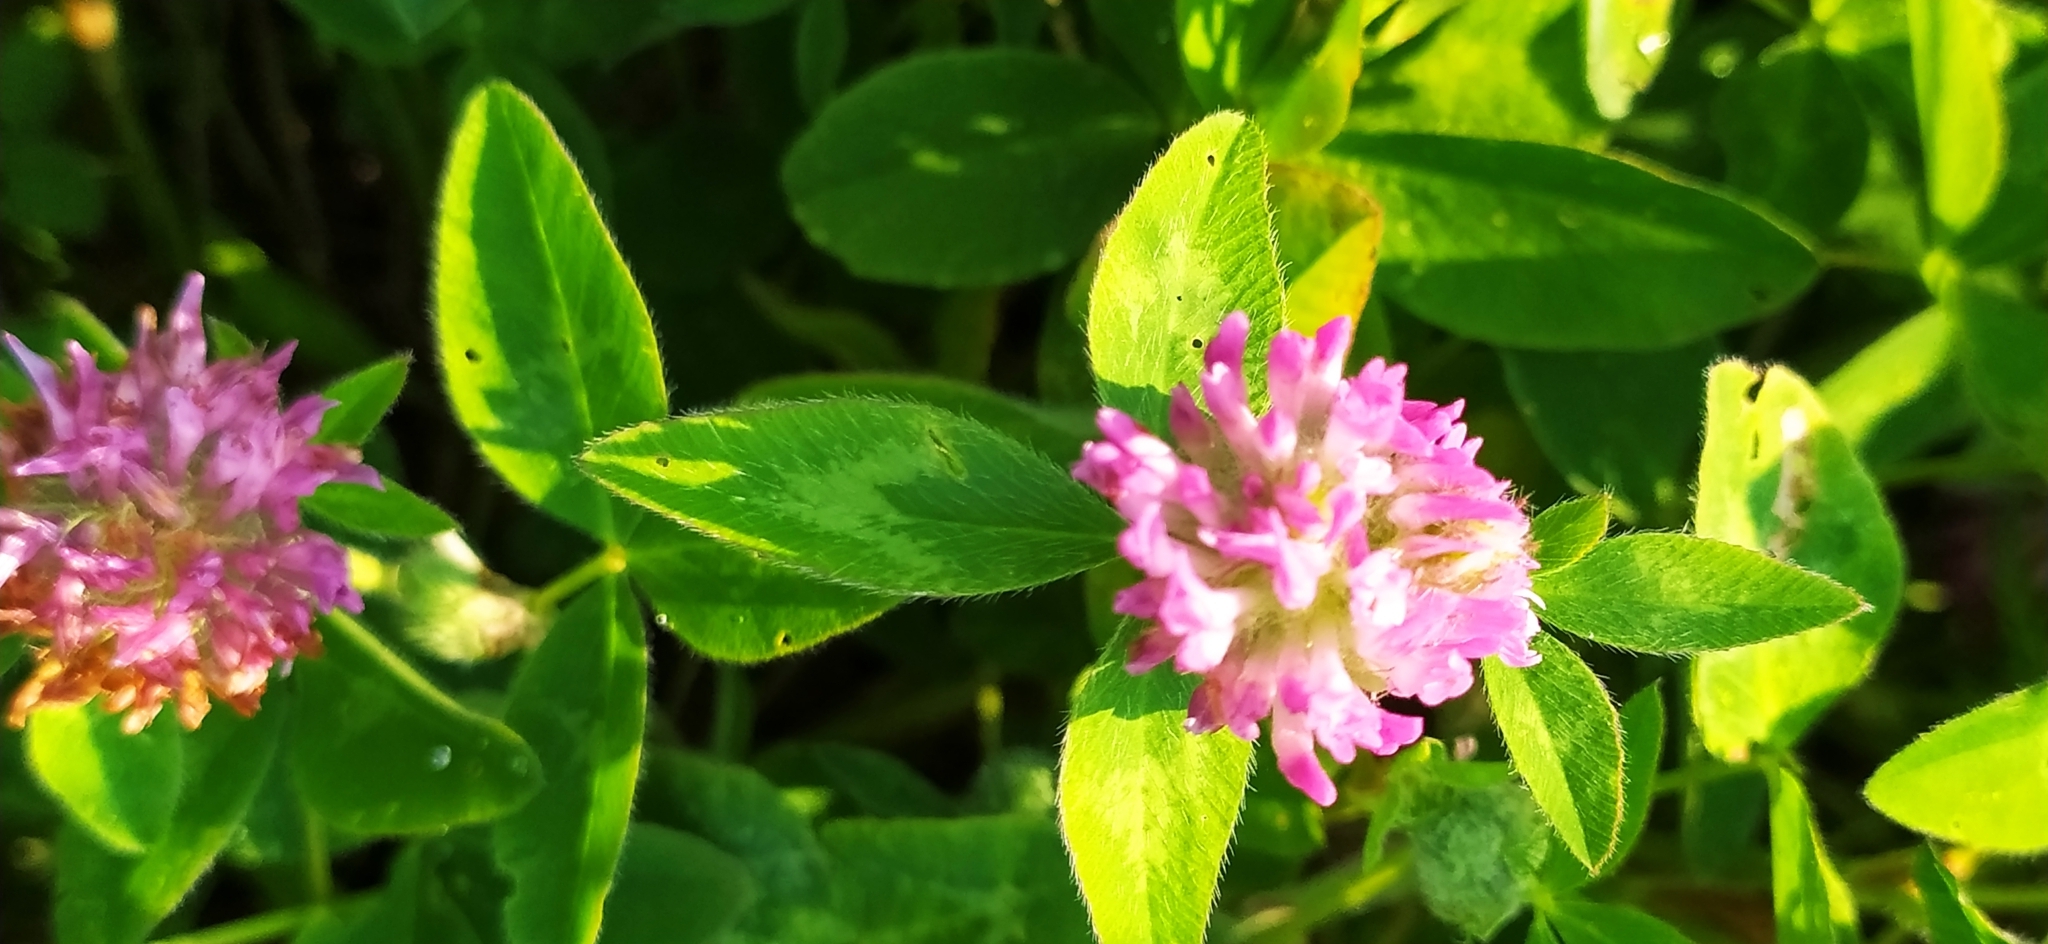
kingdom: Plantae
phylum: Tracheophyta
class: Magnoliopsida
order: Fabales
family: Fabaceae
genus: Trifolium
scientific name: Trifolium pratense
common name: Red clover
